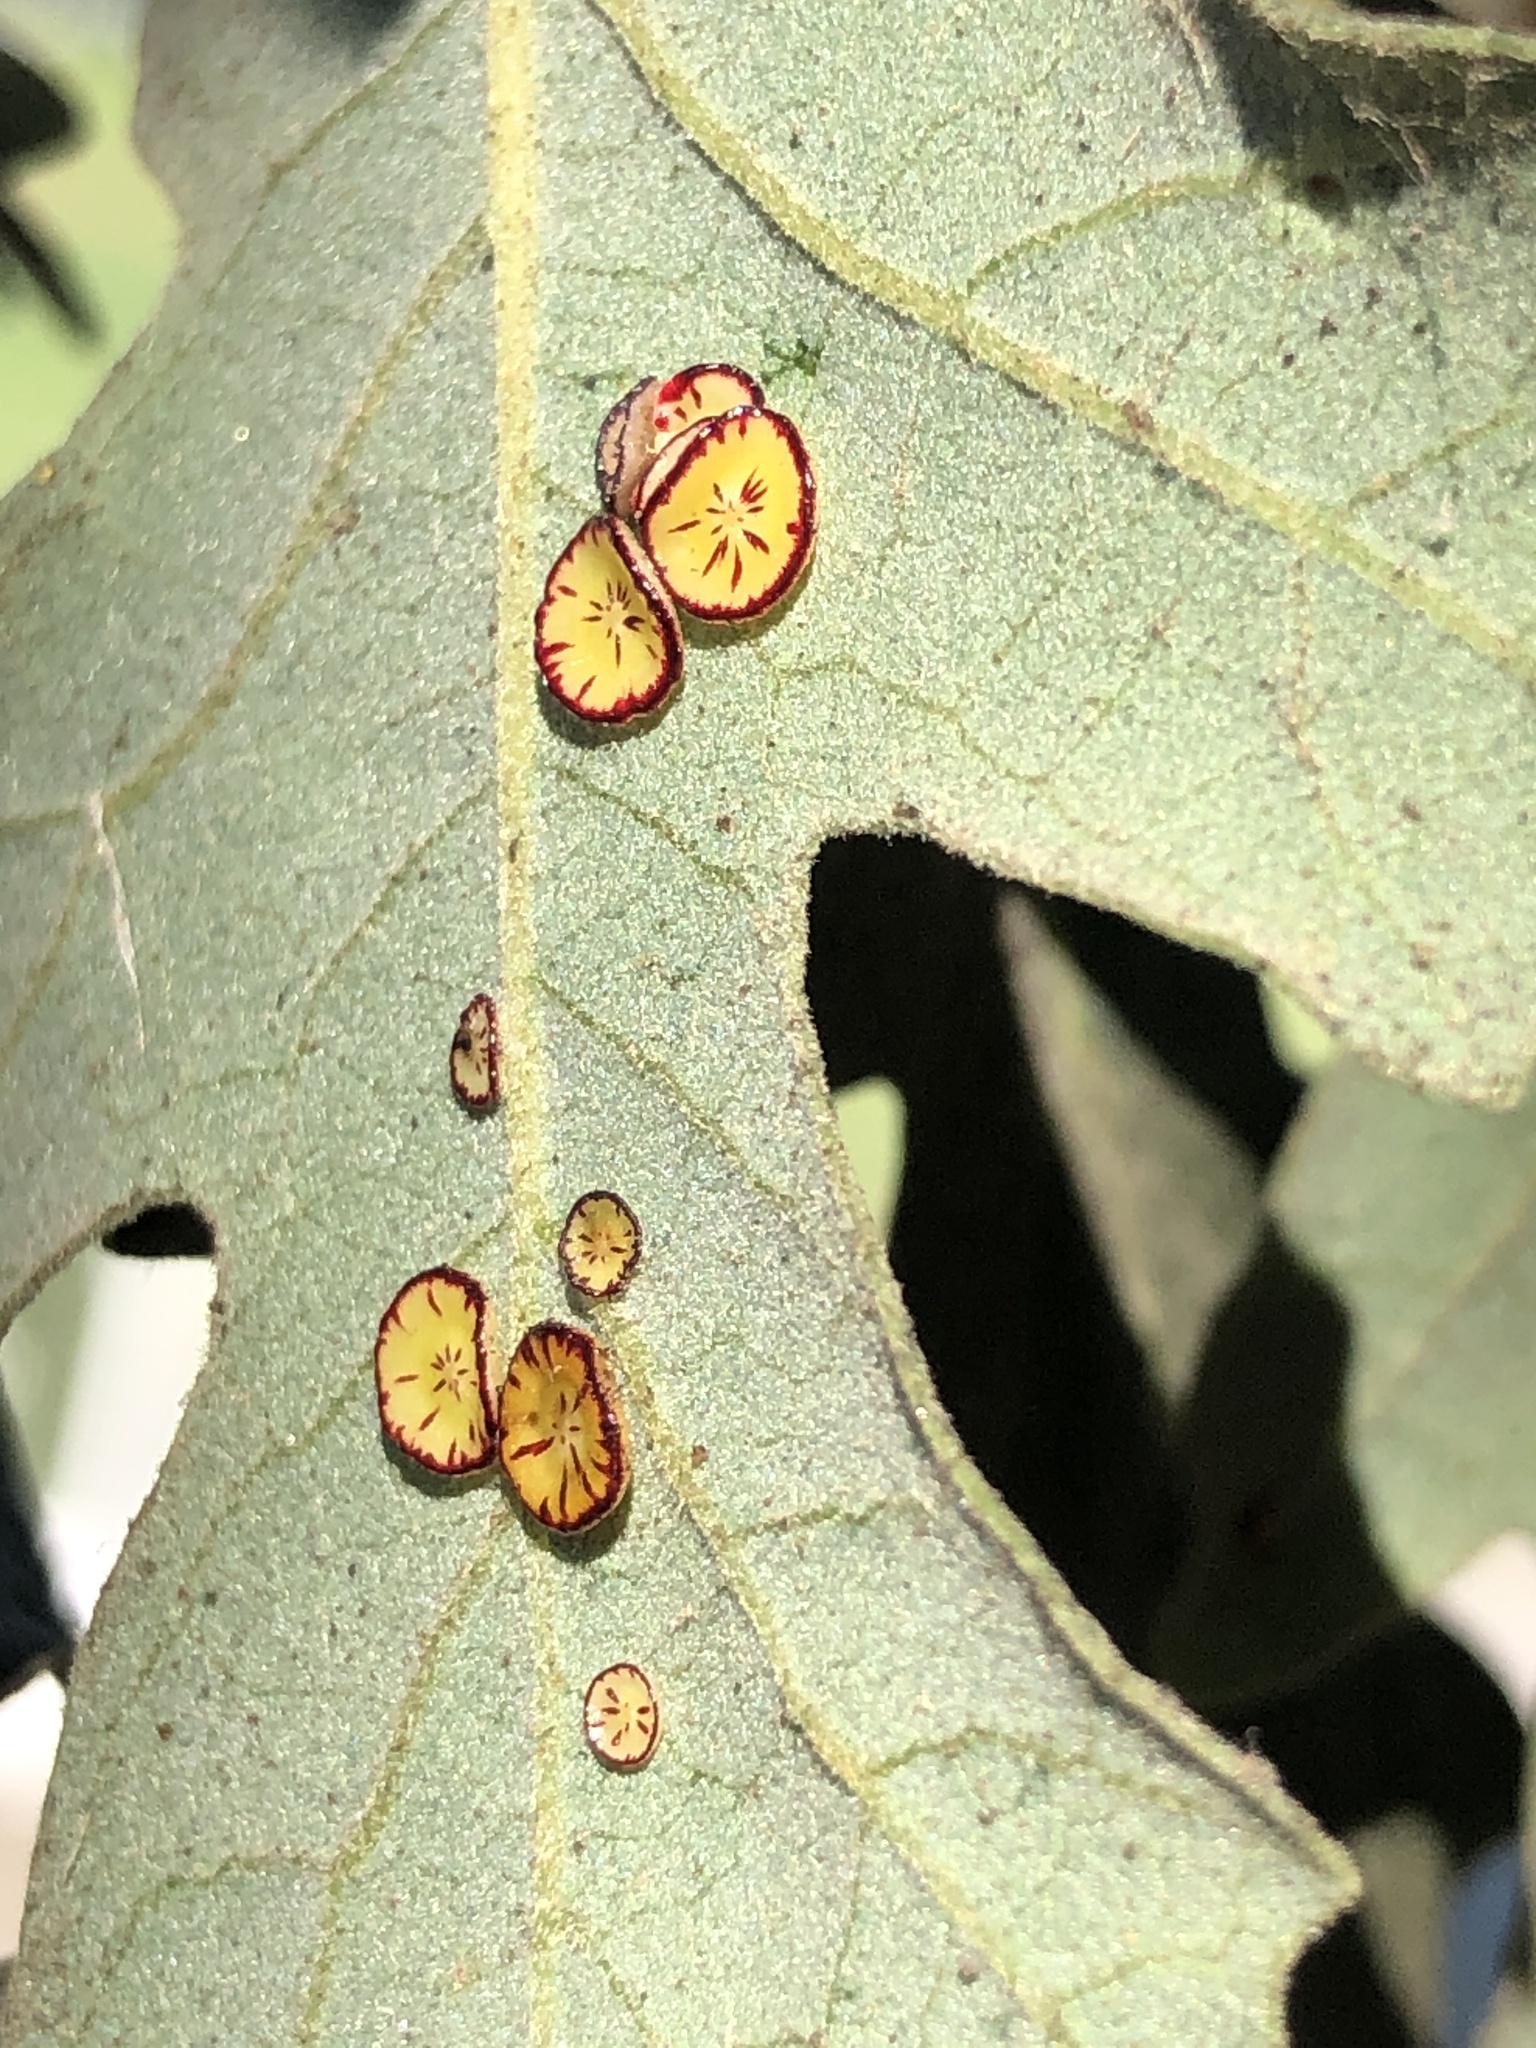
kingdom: Animalia
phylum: Arthropoda
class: Insecta
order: Hymenoptera
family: Cynipidae
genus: Andricus
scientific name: Andricus
